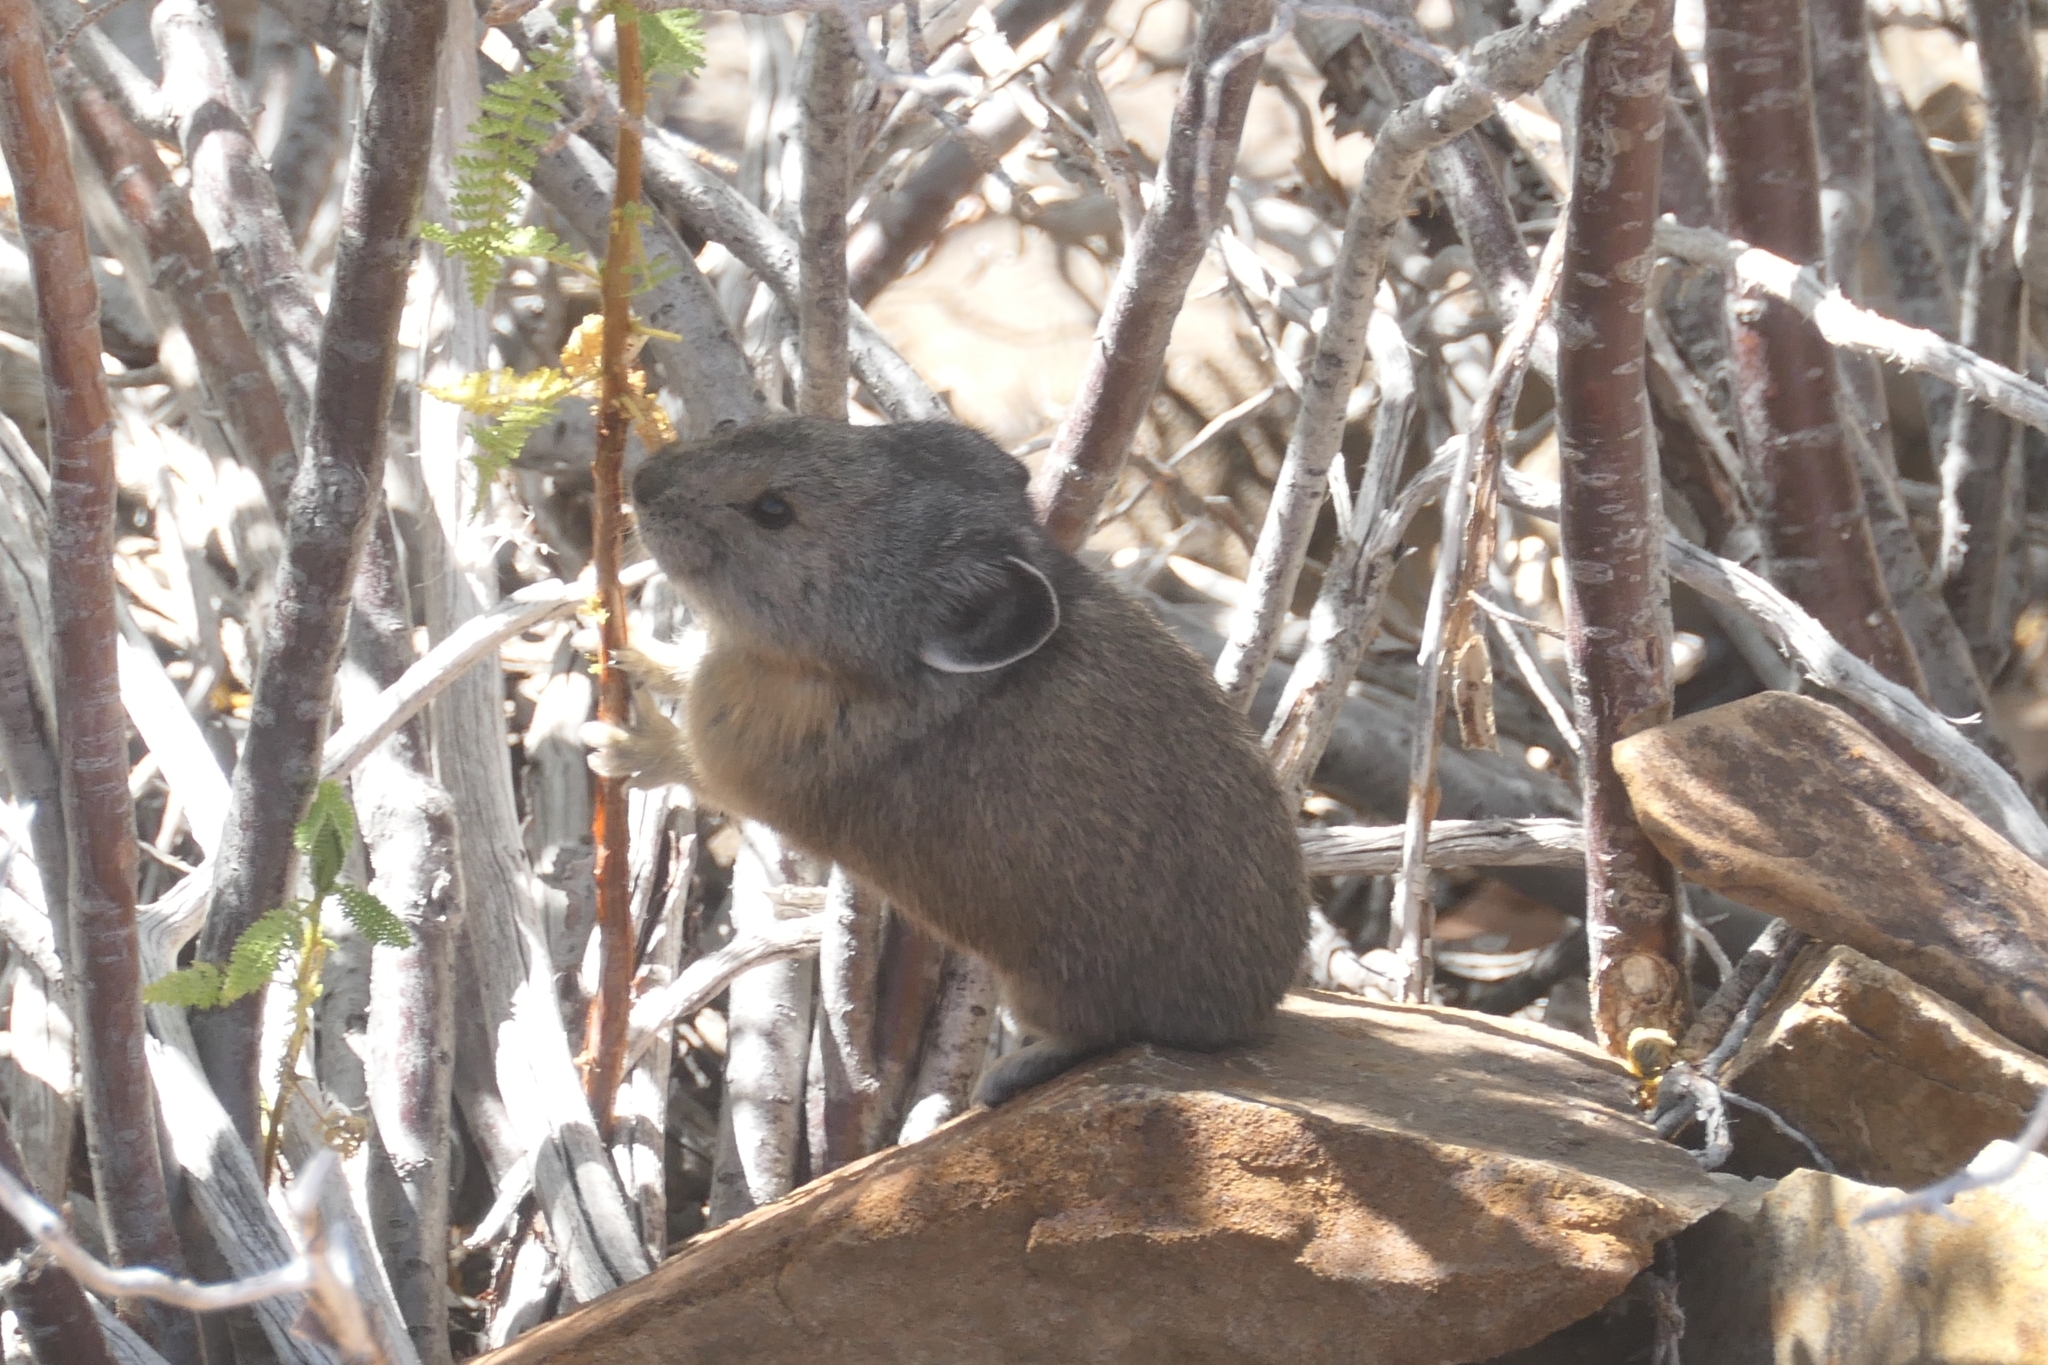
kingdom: Animalia
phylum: Chordata
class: Mammalia
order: Lagomorpha
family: Ochotonidae
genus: Ochotona
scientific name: Ochotona princeps
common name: American pika
